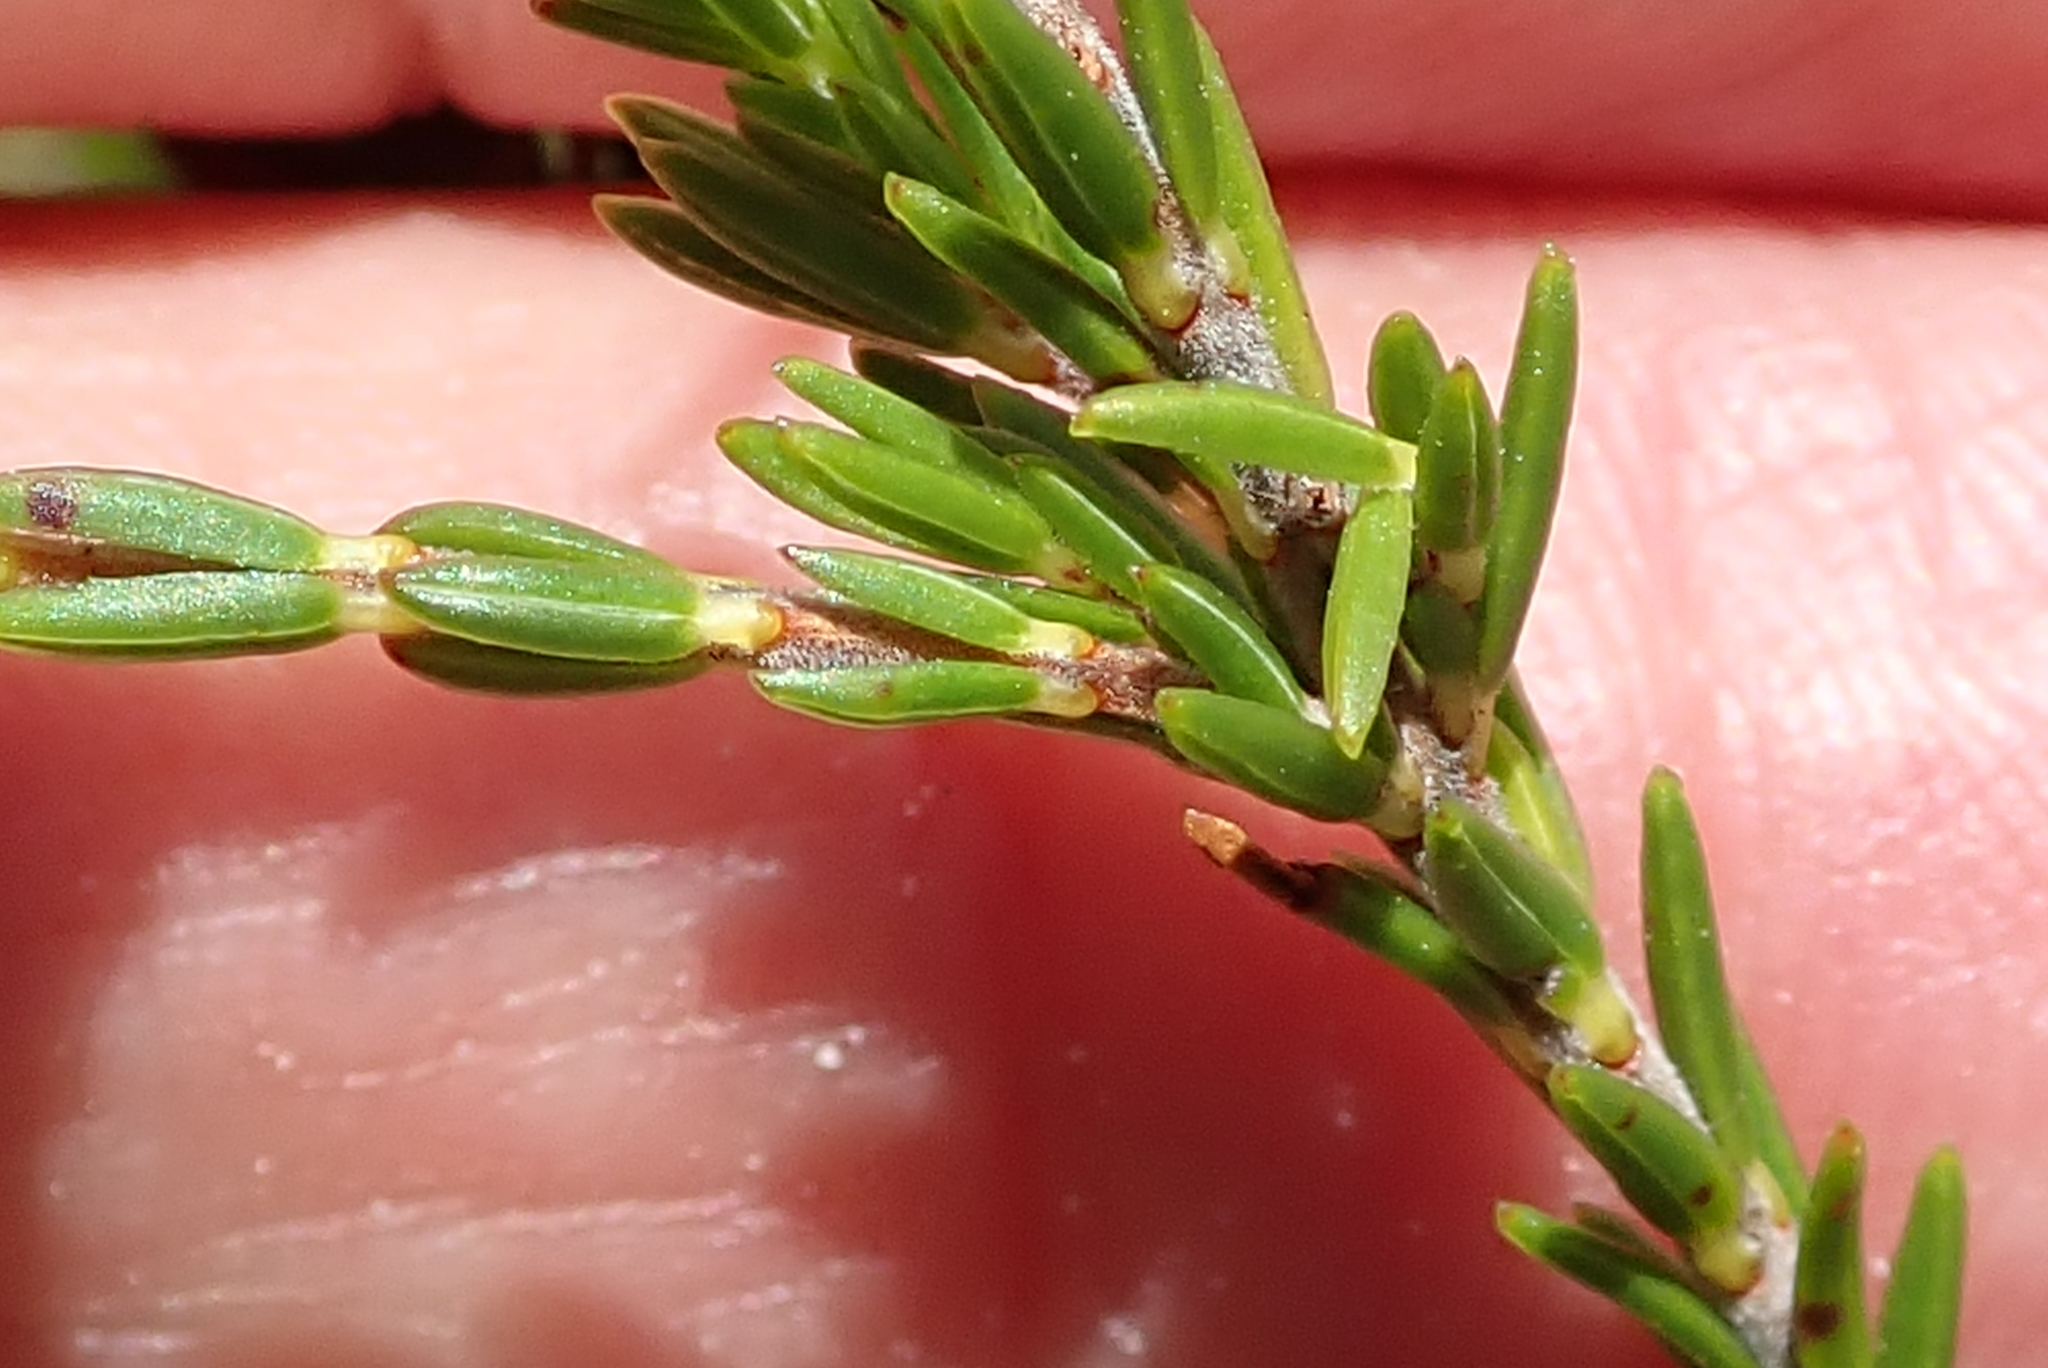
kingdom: Plantae
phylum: Tracheophyta
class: Magnoliopsida
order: Ericales
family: Ericaceae
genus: Erica
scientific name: Erica longiaristata
